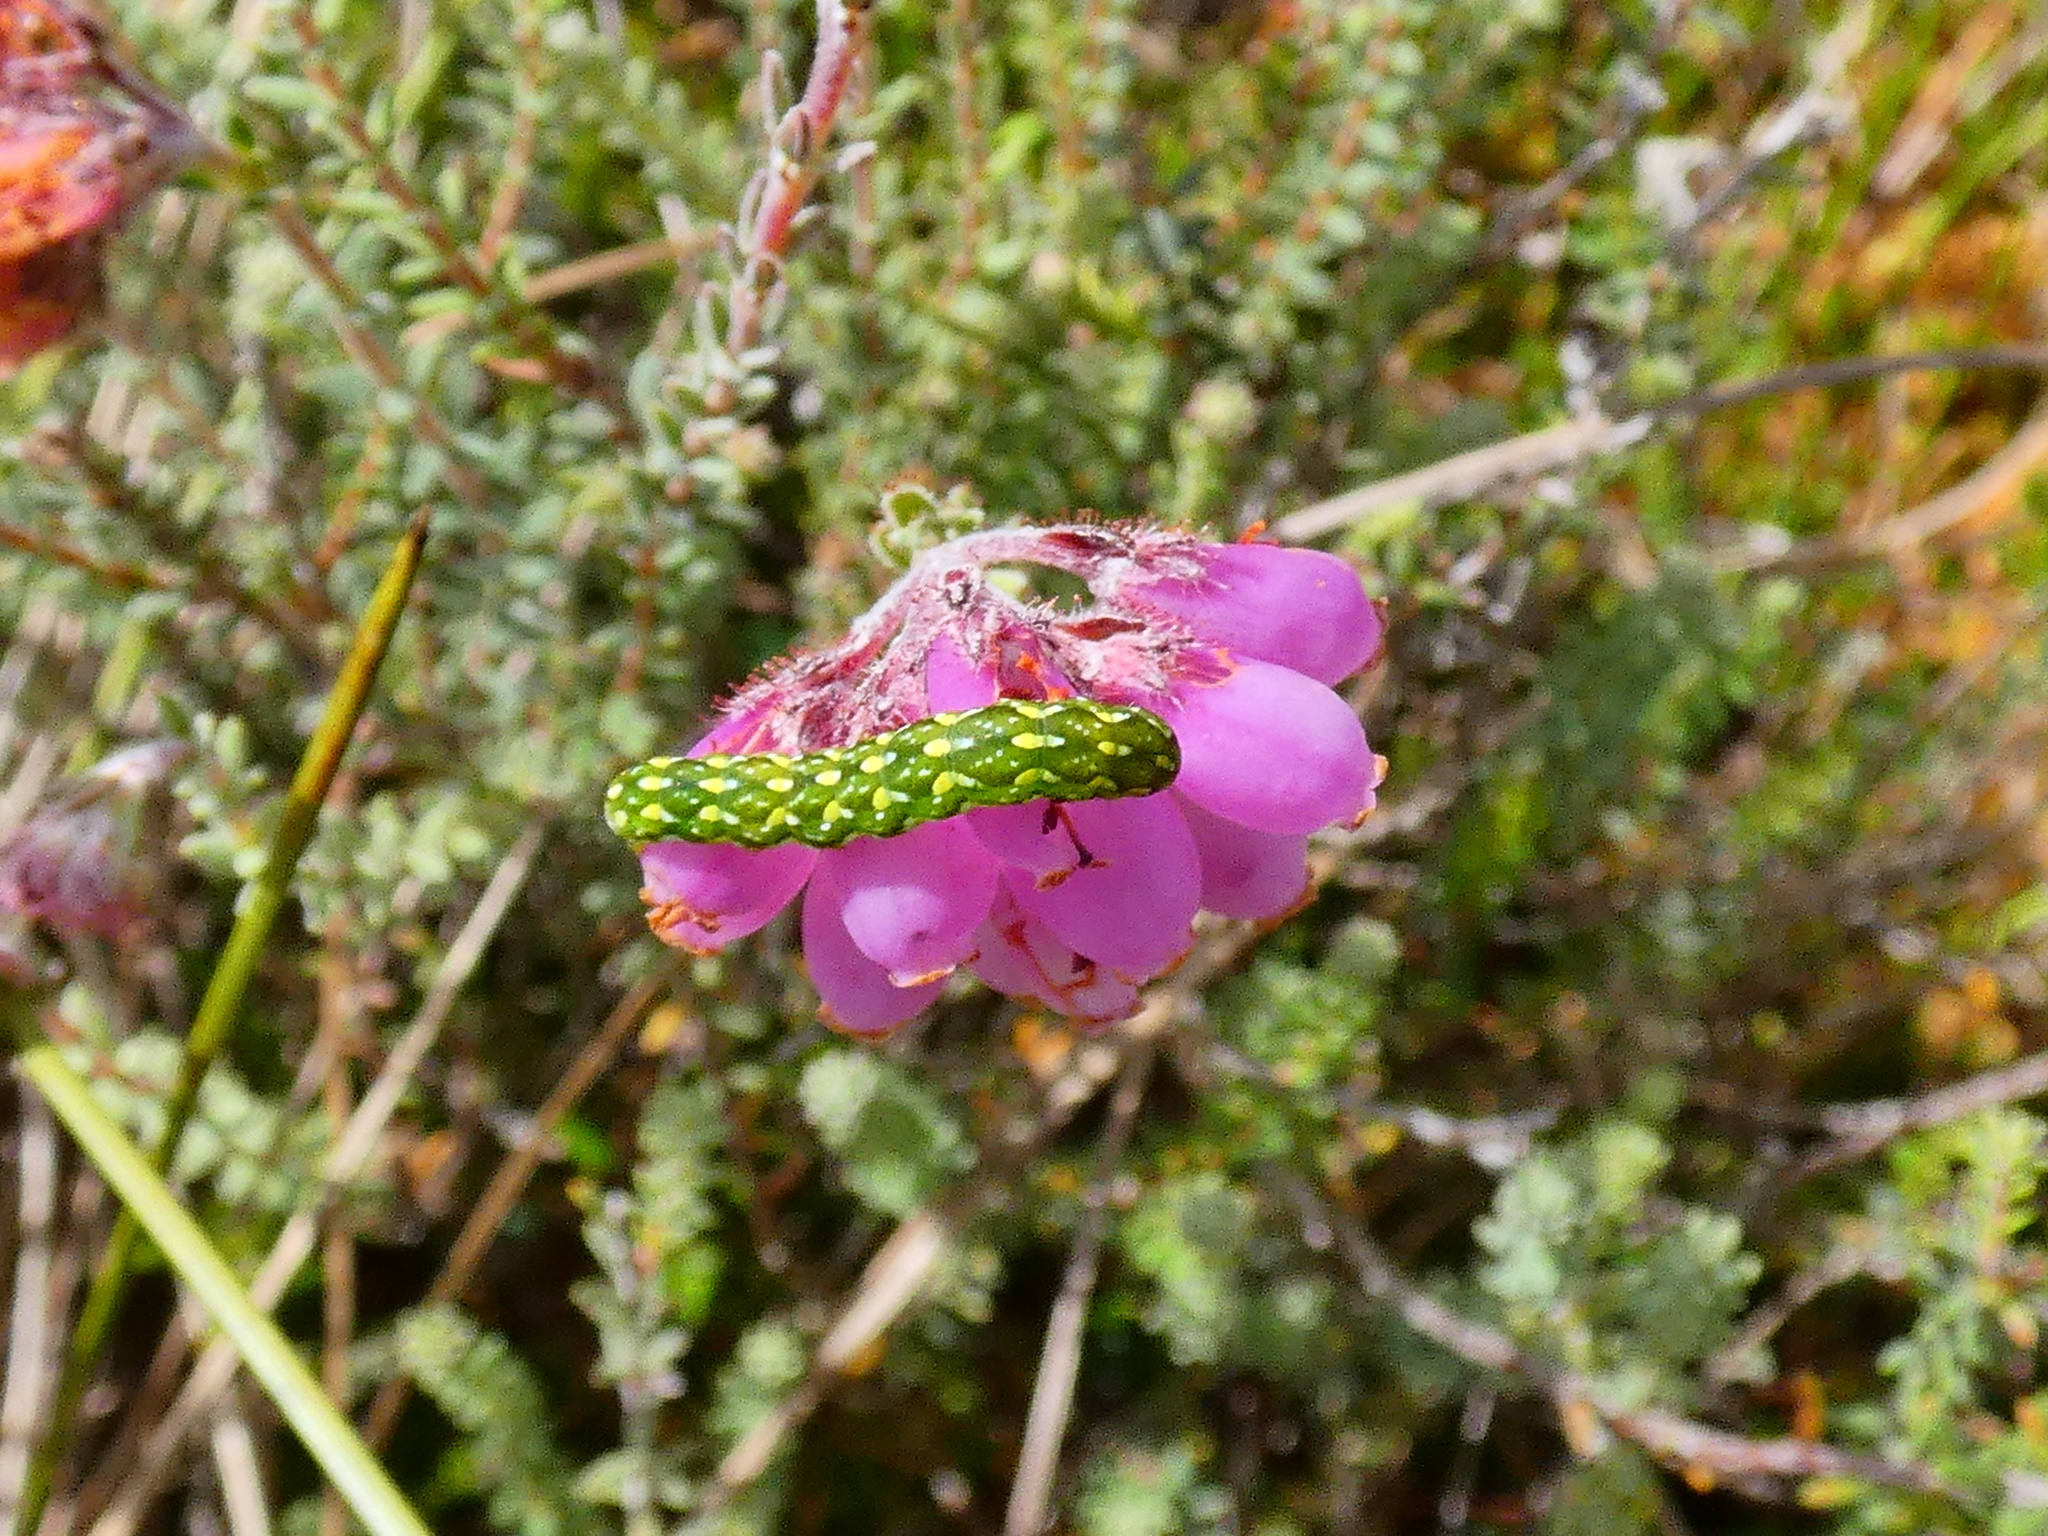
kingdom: Animalia
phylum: Arthropoda
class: Insecta
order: Lepidoptera
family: Noctuidae
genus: Anarta
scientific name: Anarta myrtilli
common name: Beautiful yellow underwing
